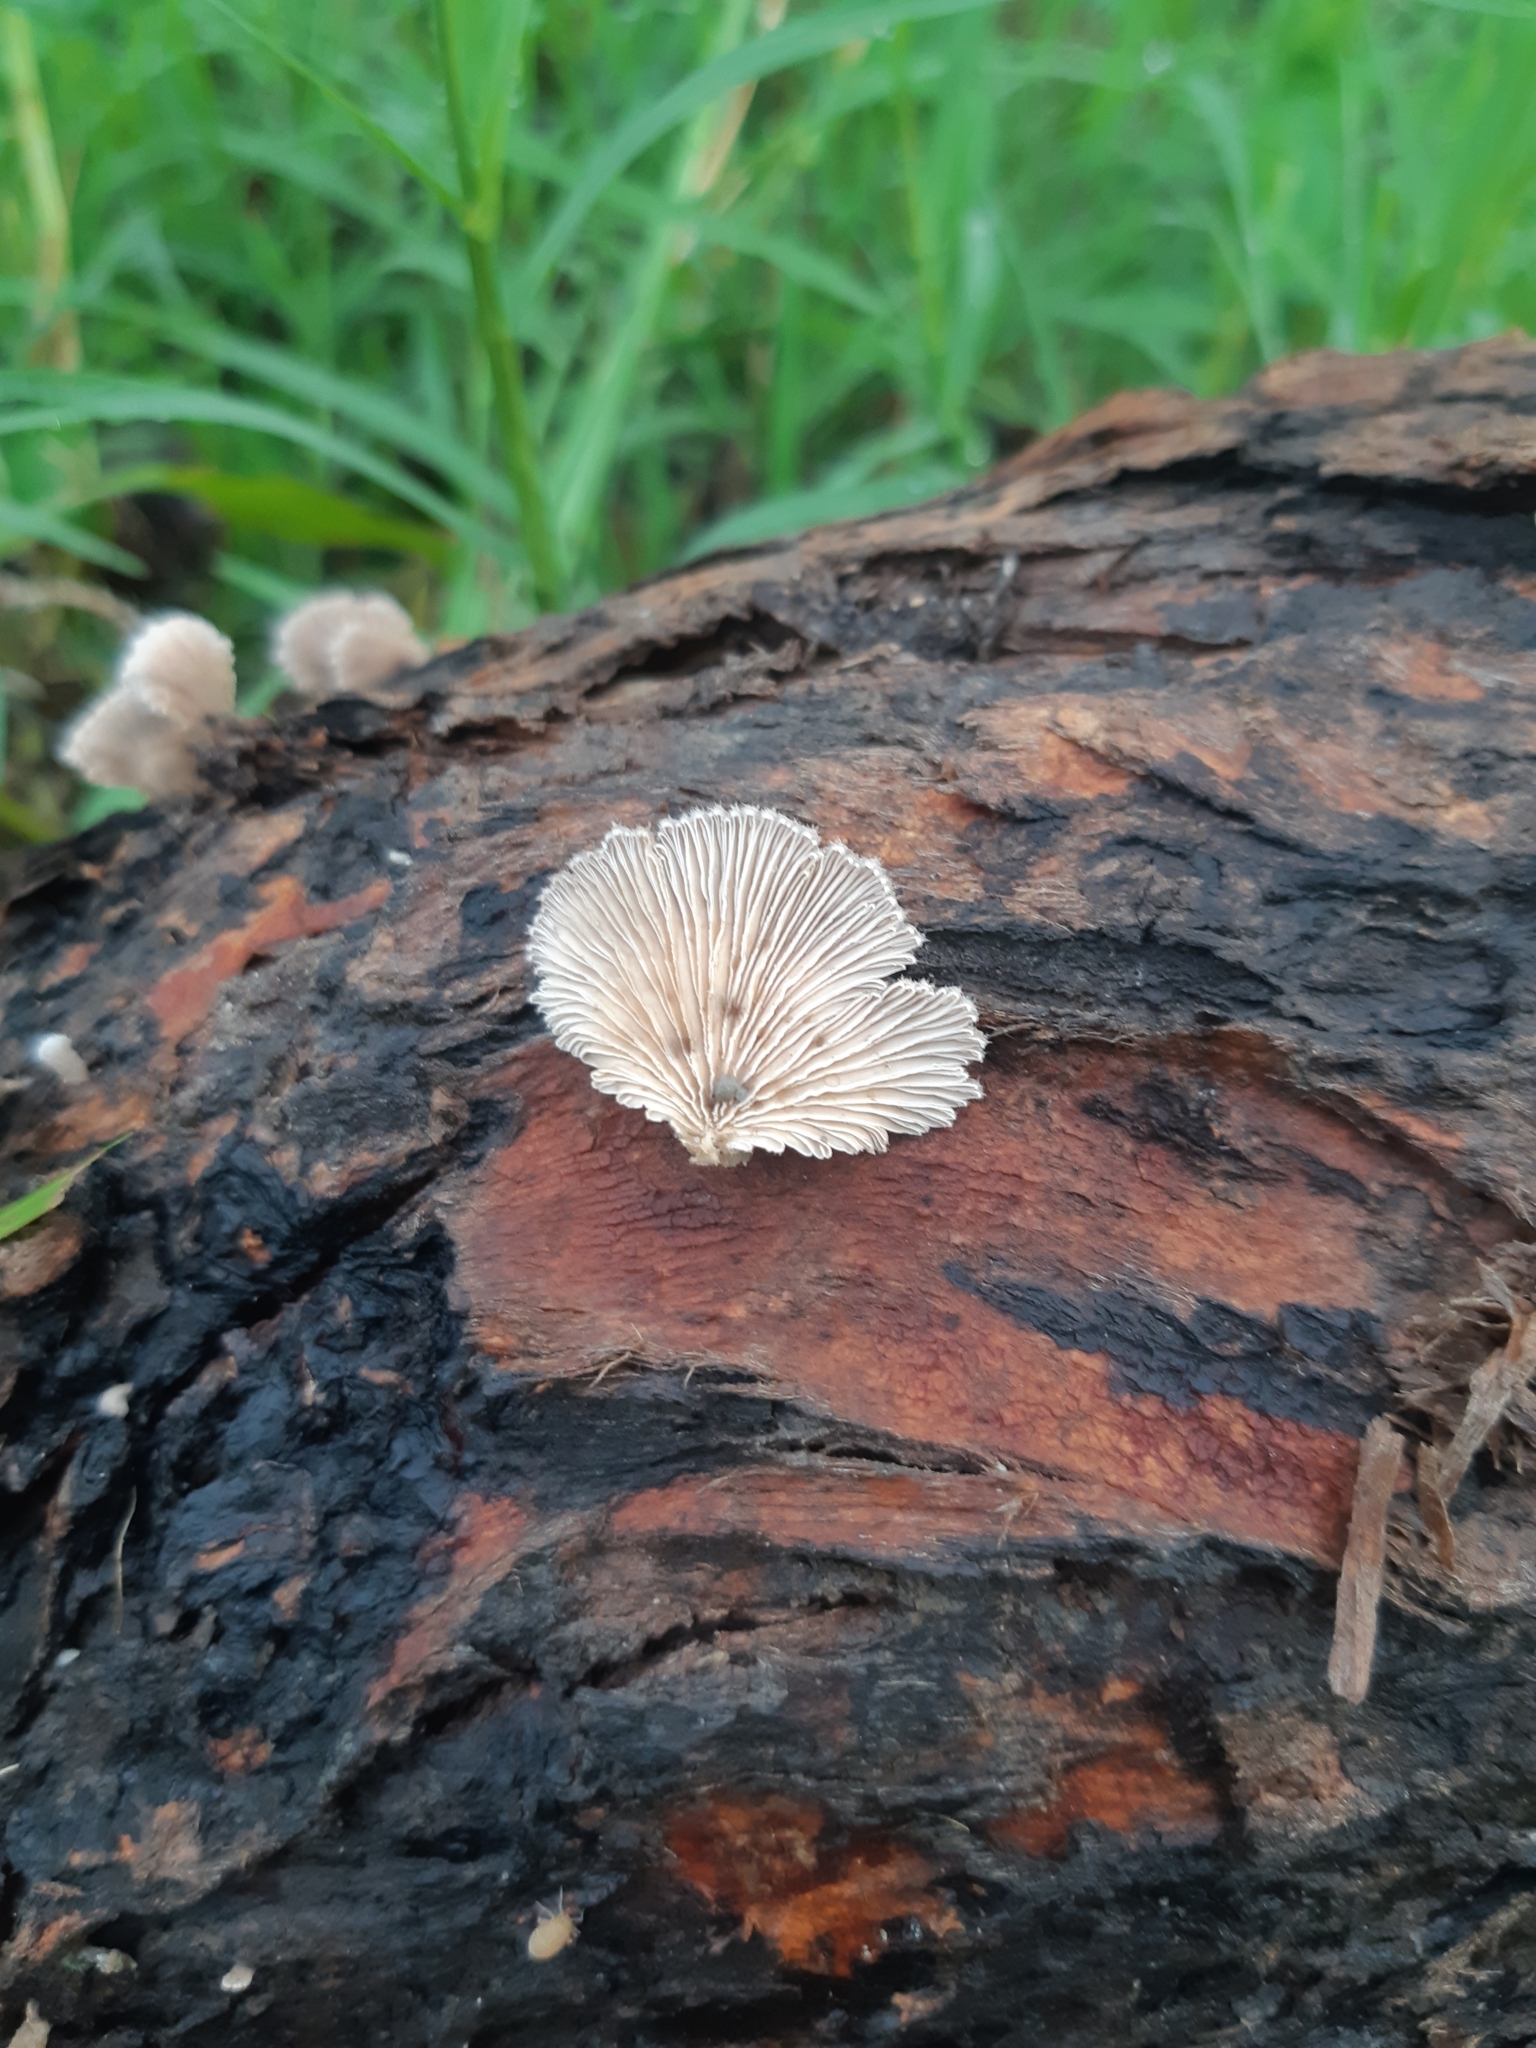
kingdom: Fungi
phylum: Basidiomycota
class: Agaricomycetes
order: Agaricales
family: Schizophyllaceae
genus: Schizophyllum
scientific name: Schizophyllum commune
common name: Common porecrust
